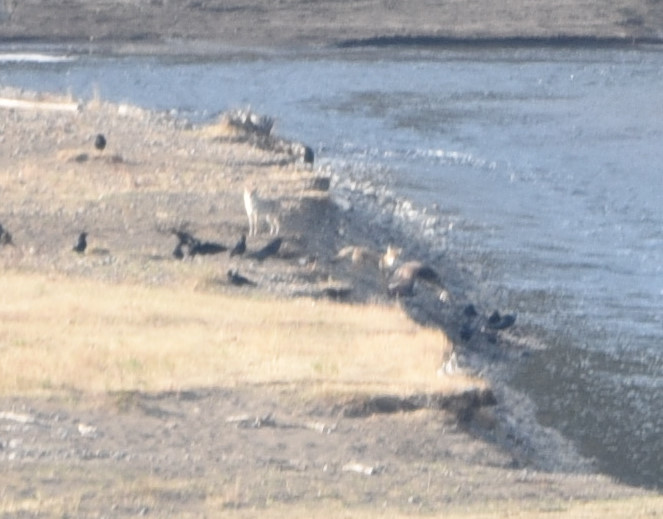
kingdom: Animalia
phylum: Chordata
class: Mammalia
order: Carnivora
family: Canidae
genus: Canis
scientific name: Canis latrans
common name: Coyote
